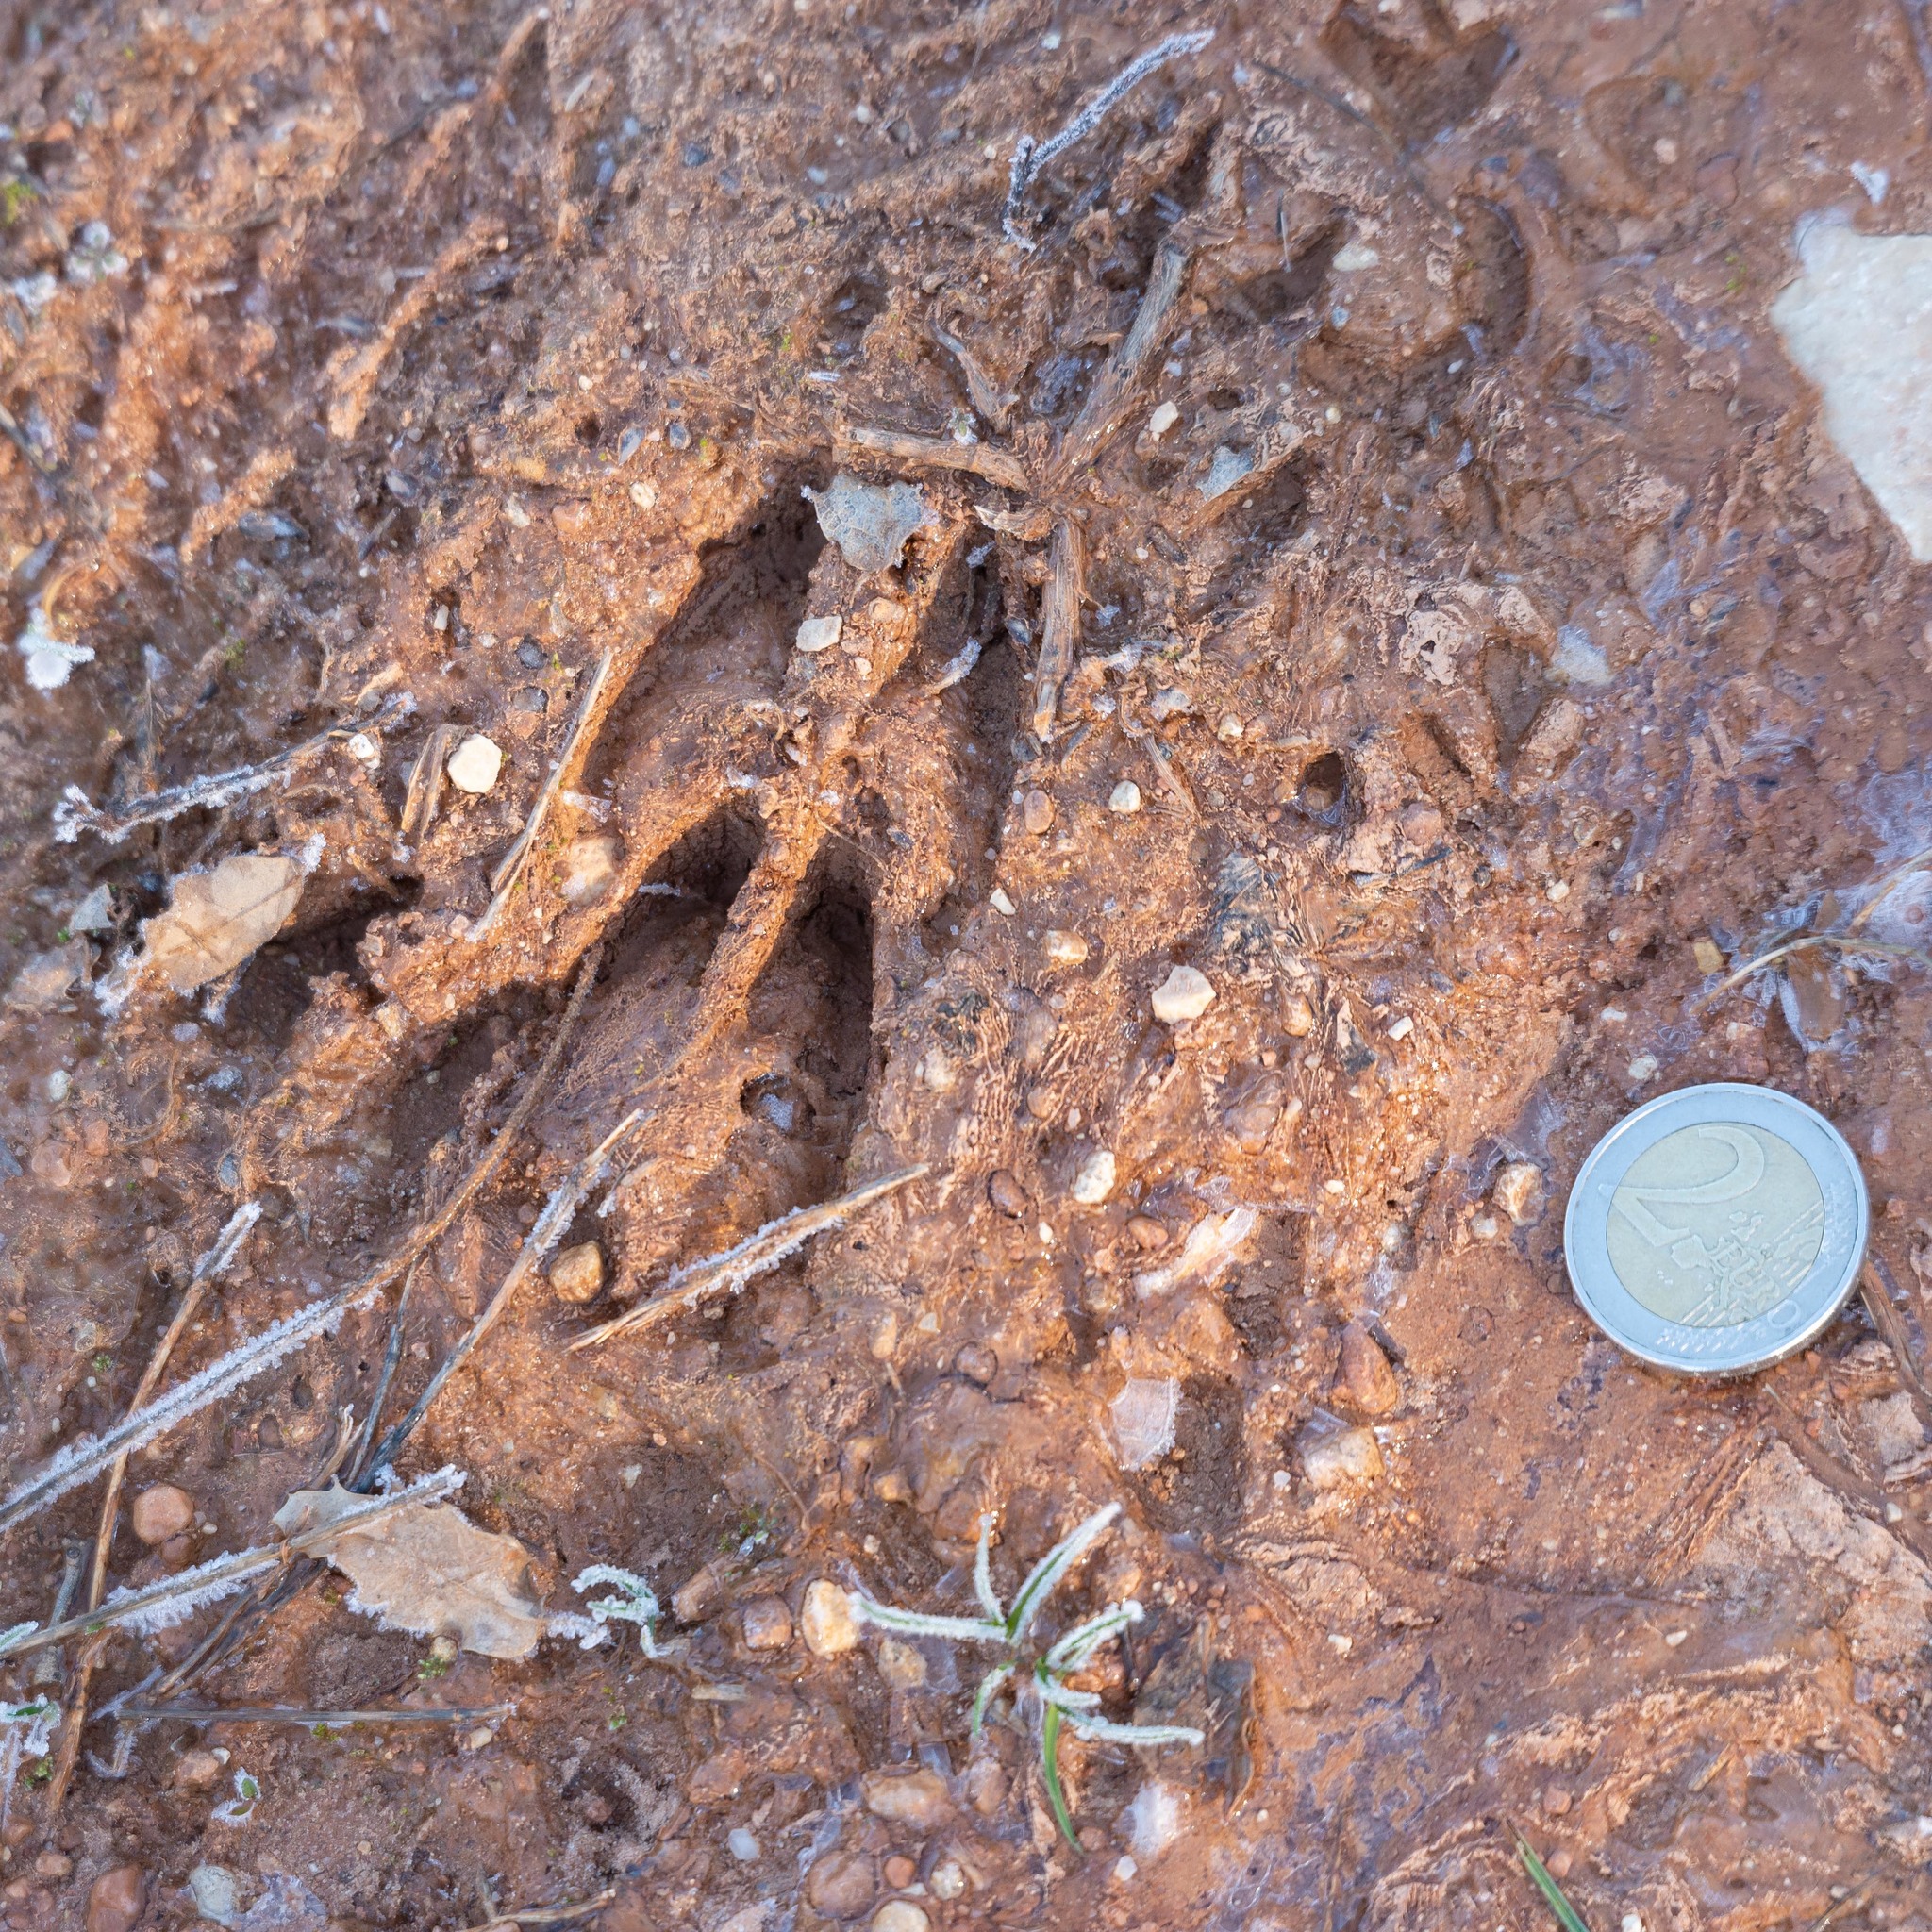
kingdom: Animalia
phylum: Chordata
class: Mammalia
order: Artiodactyla
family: Cervidae
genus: Capreolus
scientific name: Capreolus capreolus
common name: Western roe deer
